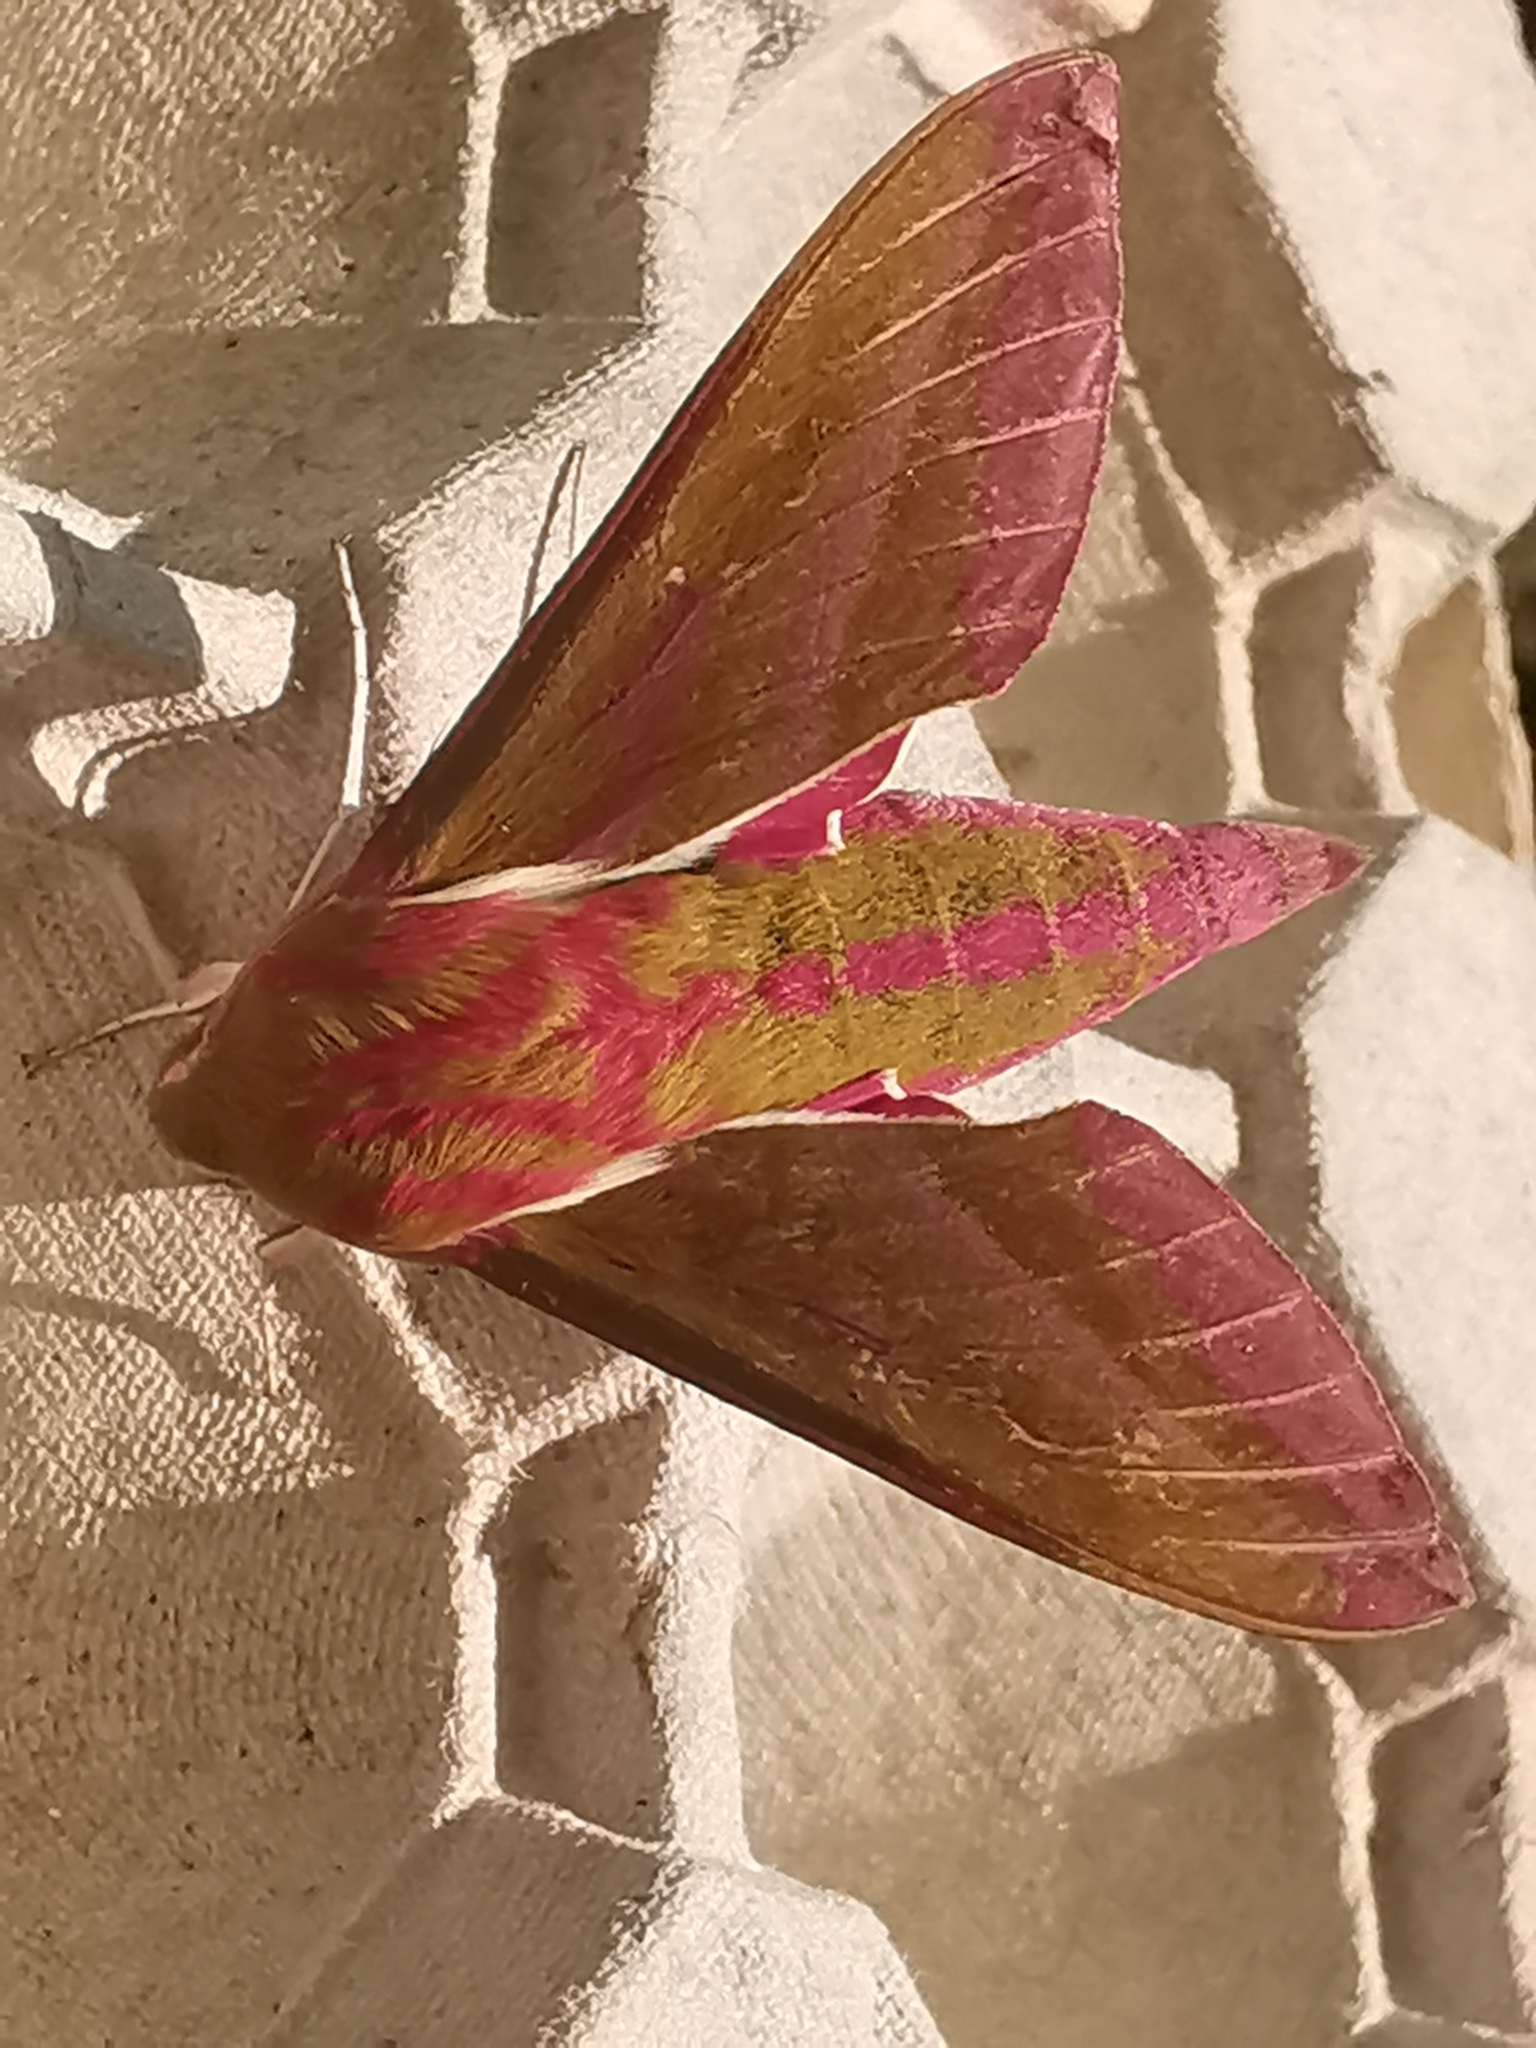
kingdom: Animalia
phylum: Arthropoda
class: Insecta
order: Lepidoptera
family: Sphingidae
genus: Deilephila
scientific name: Deilephila elpenor
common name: Elephant hawk-moth
